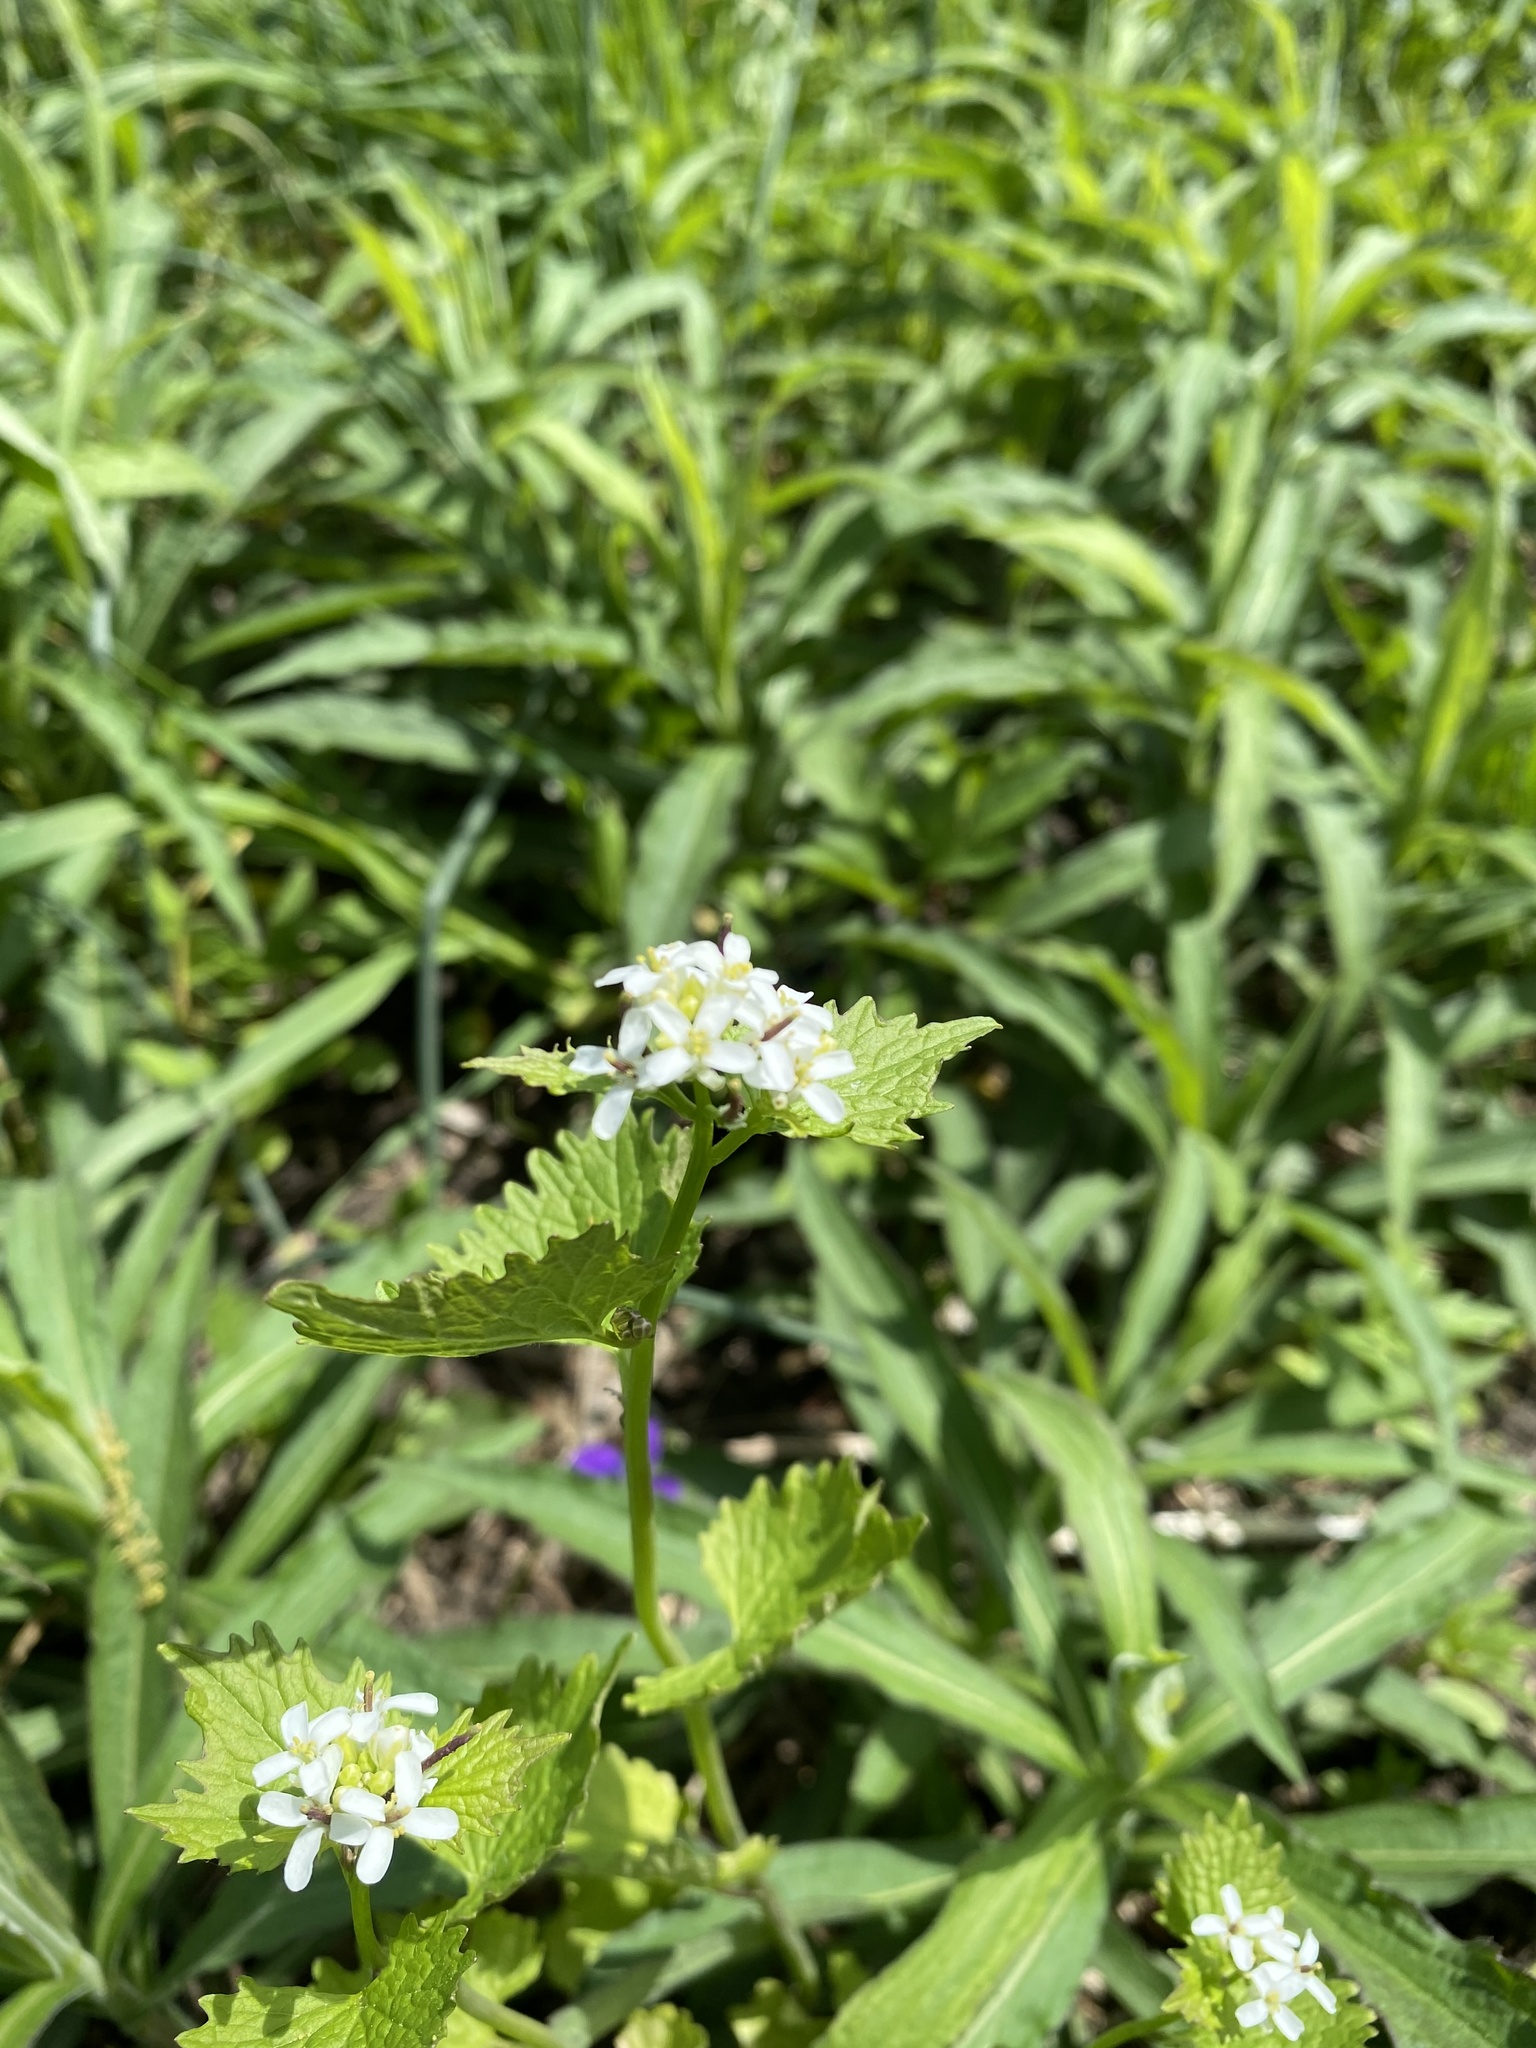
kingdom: Plantae
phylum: Tracheophyta
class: Magnoliopsida
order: Brassicales
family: Brassicaceae
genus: Alliaria
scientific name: Alliaria petiolata
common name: Garlic mustard
